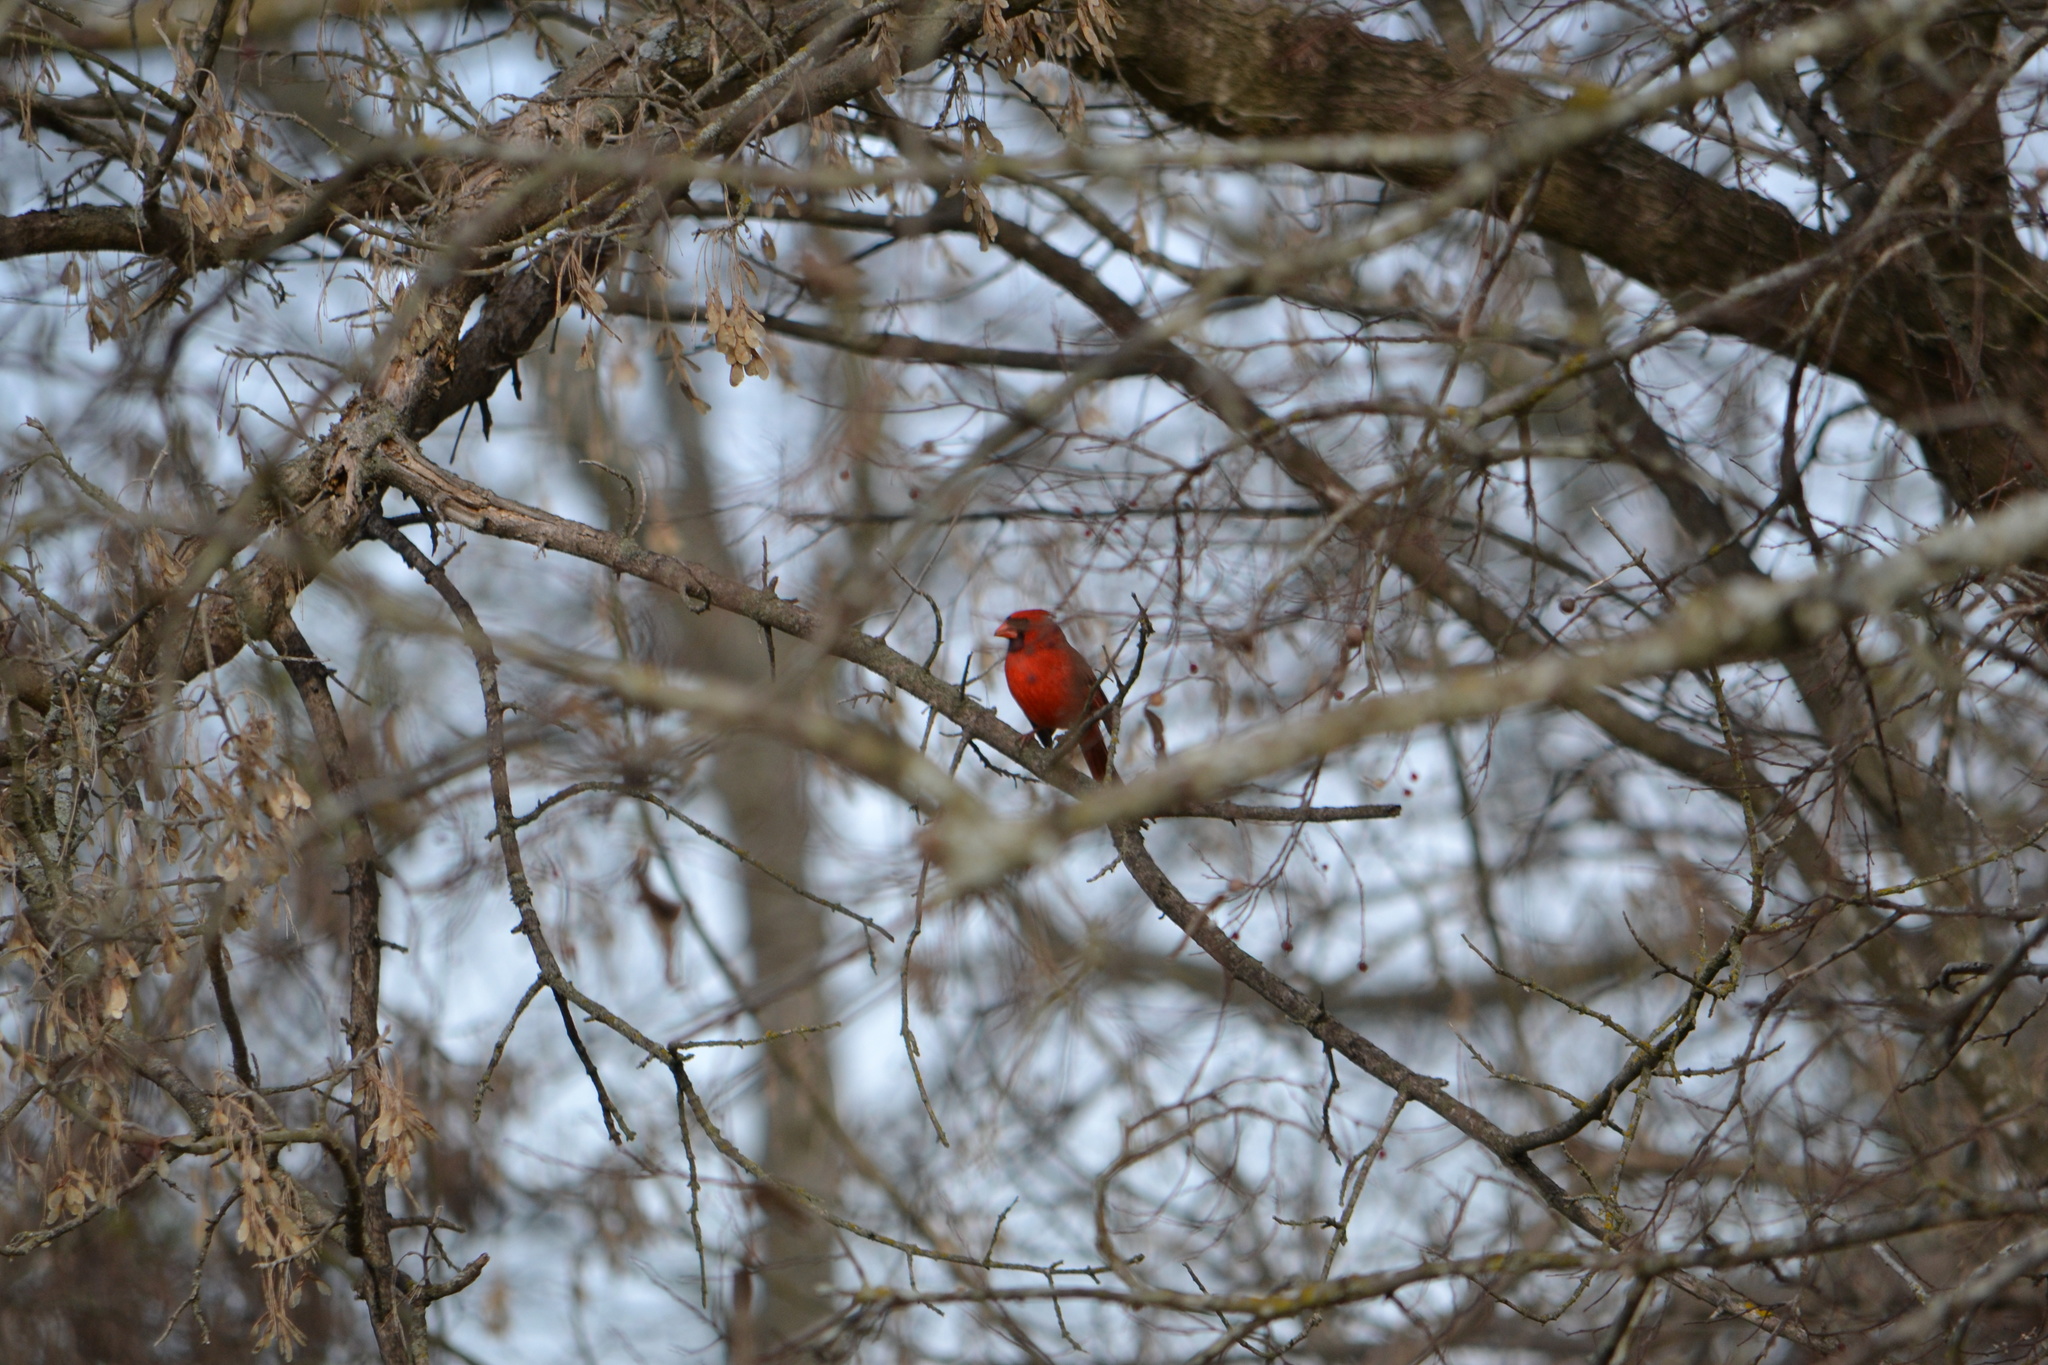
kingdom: Animalia
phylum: Chordata
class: Aves
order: Passeriformes
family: Cardinalidae
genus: Cardinalis
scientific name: Cardinalis cardinalis
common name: Northern cardinal
